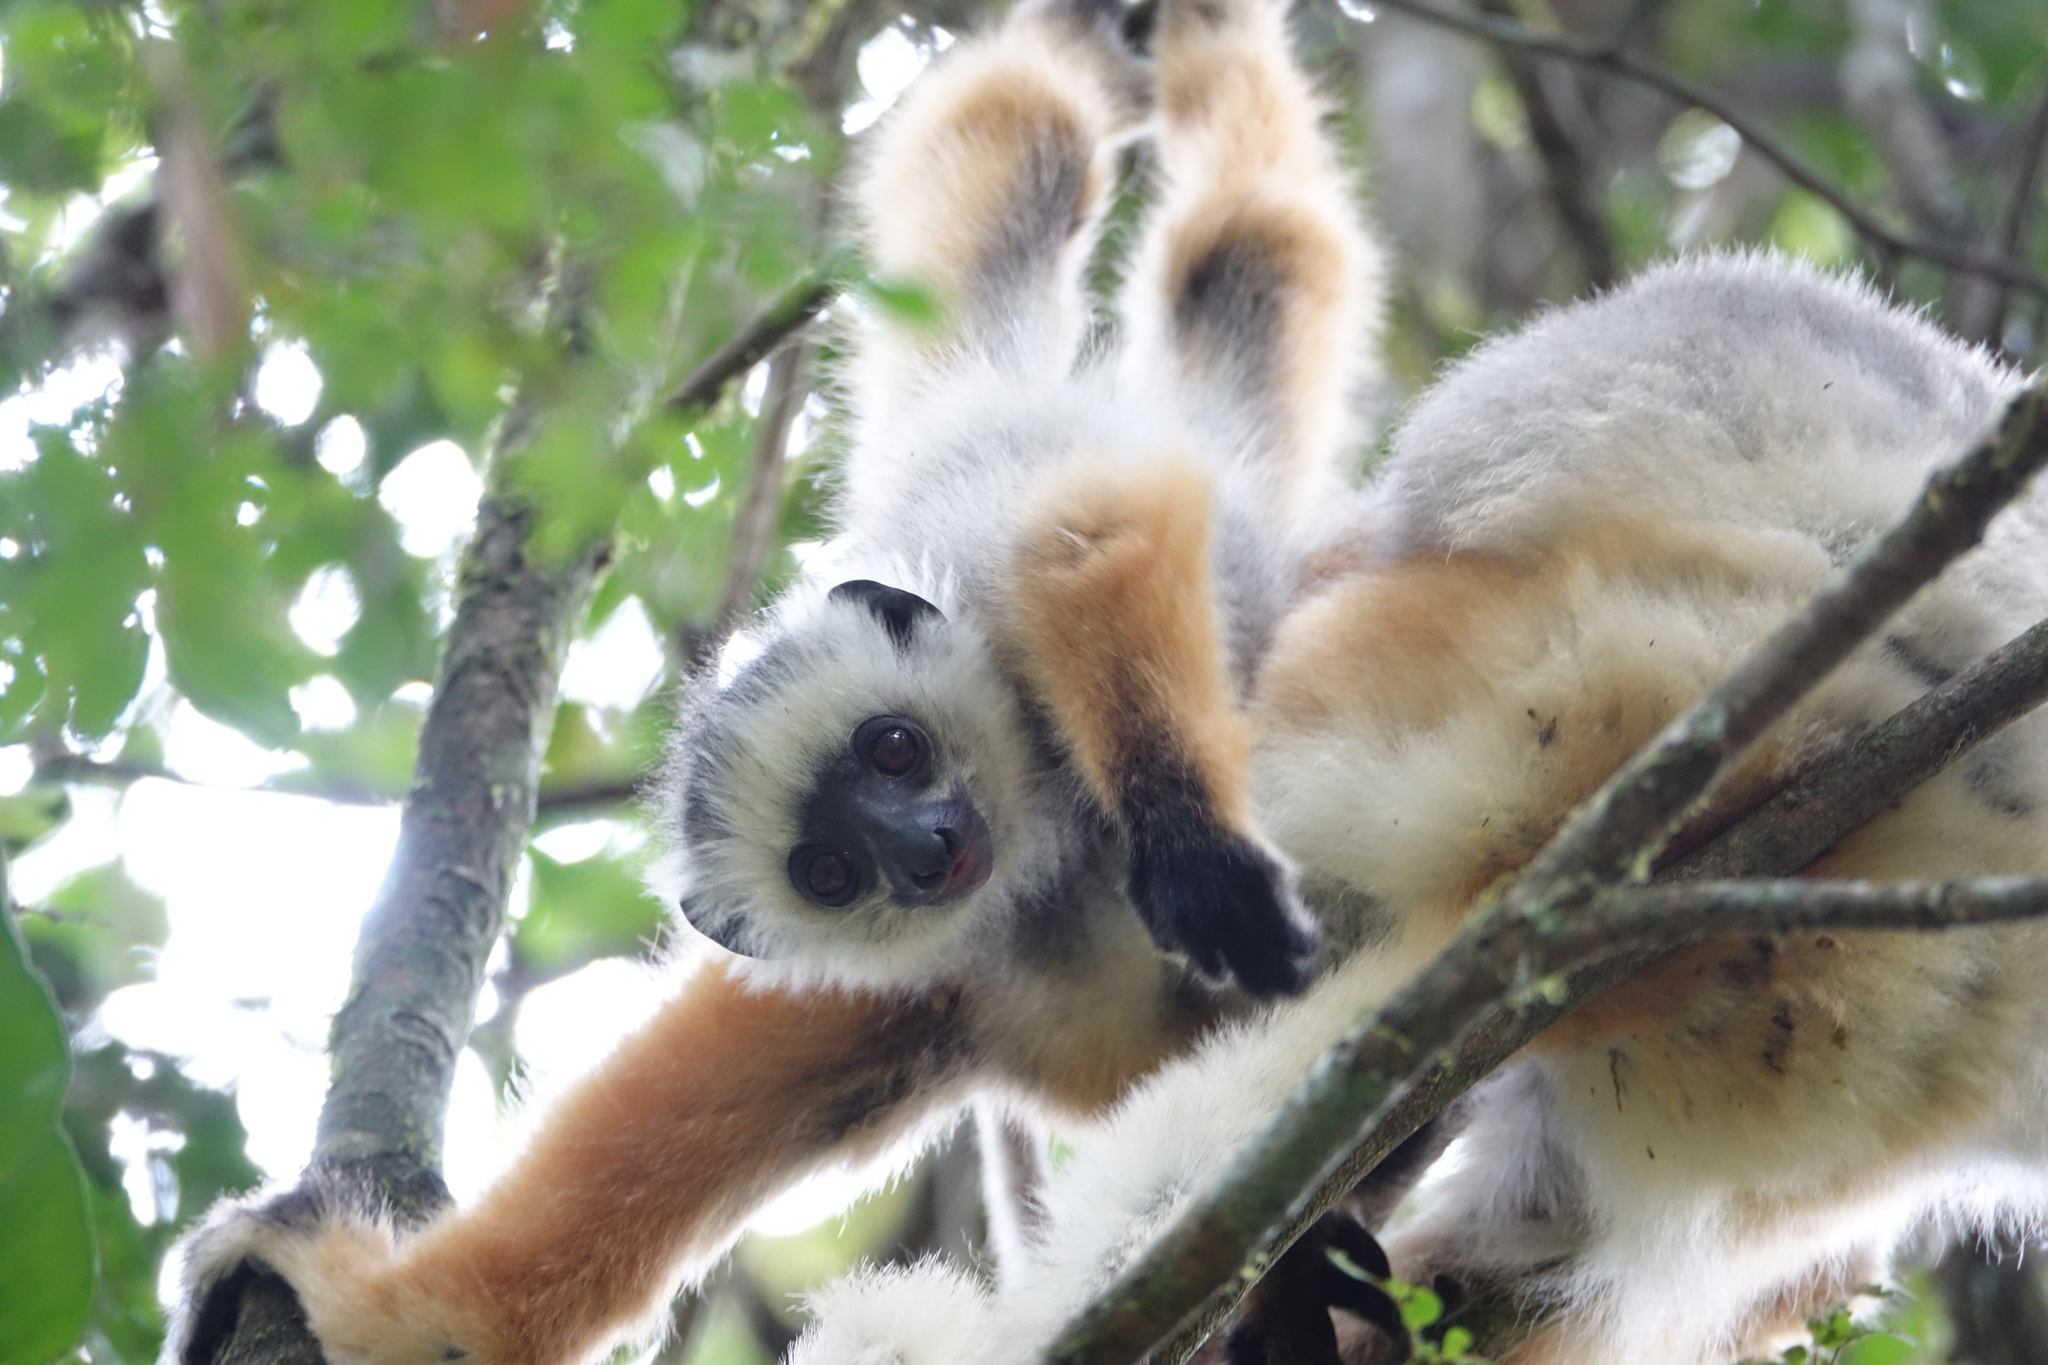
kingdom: Animalia
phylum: Chordata
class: Mammalia
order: Primates
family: Indriidae
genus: Propithecus
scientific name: Propithecus diadema
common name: Diademed sifaka
